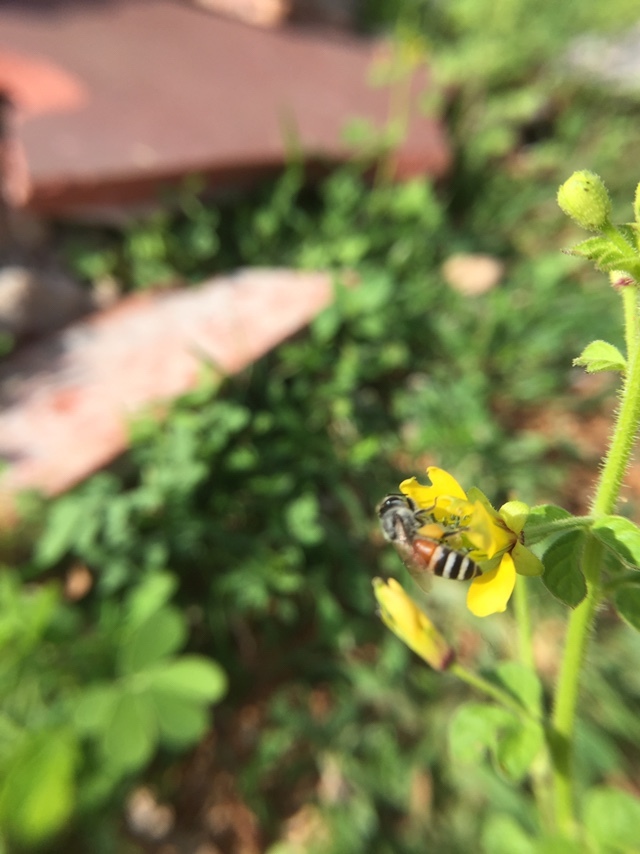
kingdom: Animalia
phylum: Arthropoda
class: Insecta
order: Hymenoptera
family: Apidae
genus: Apis
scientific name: Apis florea
